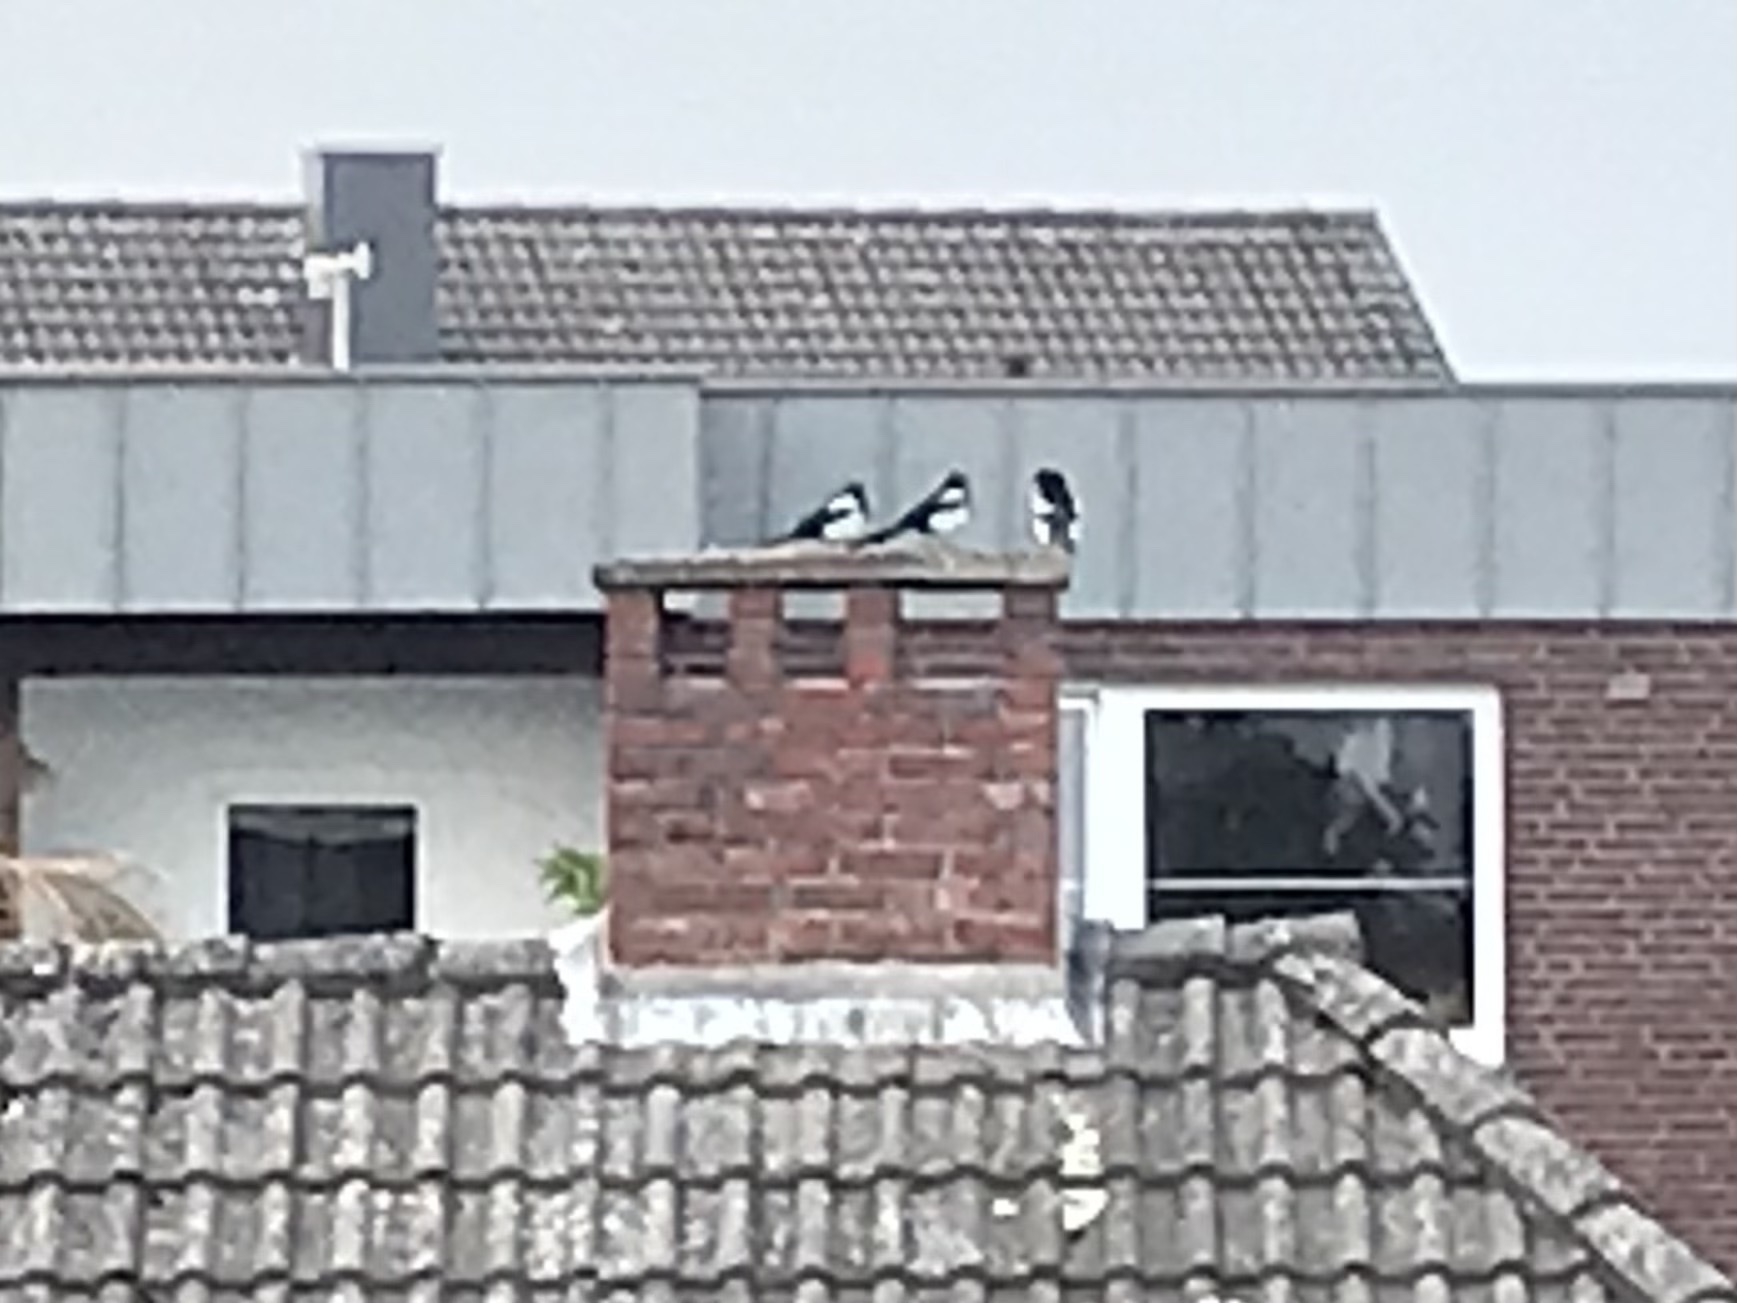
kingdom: Animalia
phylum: Chordata
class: Aves
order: Passeriformes
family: Corvidae
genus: Pica
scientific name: Pica pica
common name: Eurasian magpie
